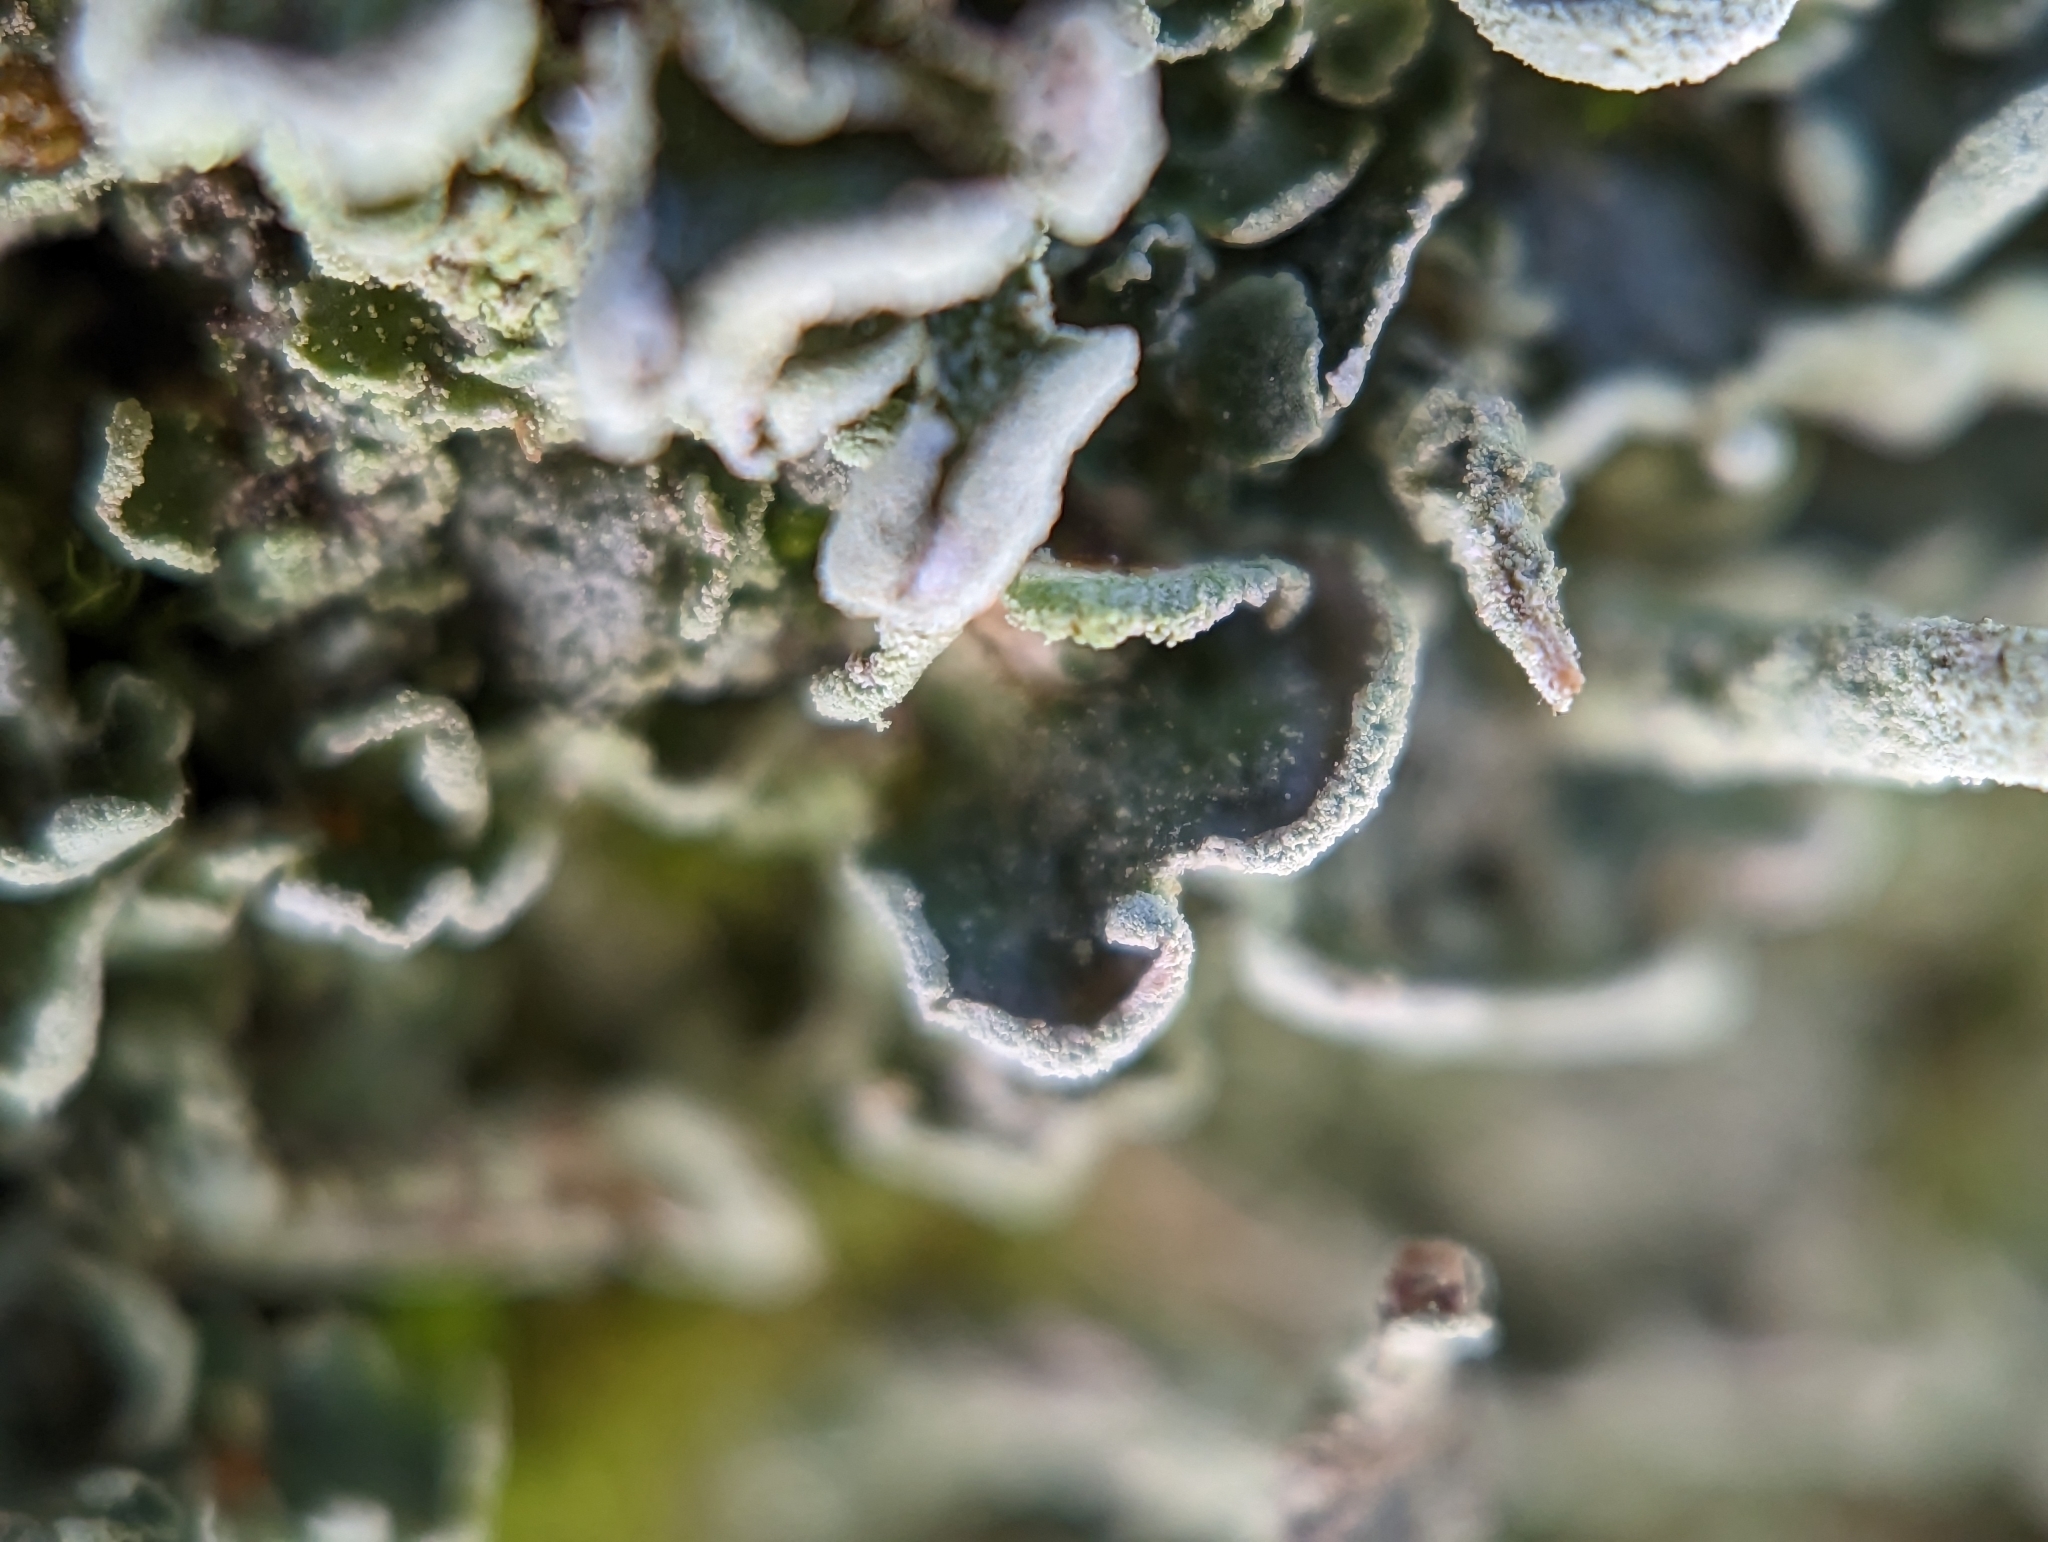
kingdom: Fungi
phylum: Ascomycota
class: Lecanoromycetes
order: Lecanorales
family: Cladoniaceae
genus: Cladonia
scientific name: Cladonia digitata
